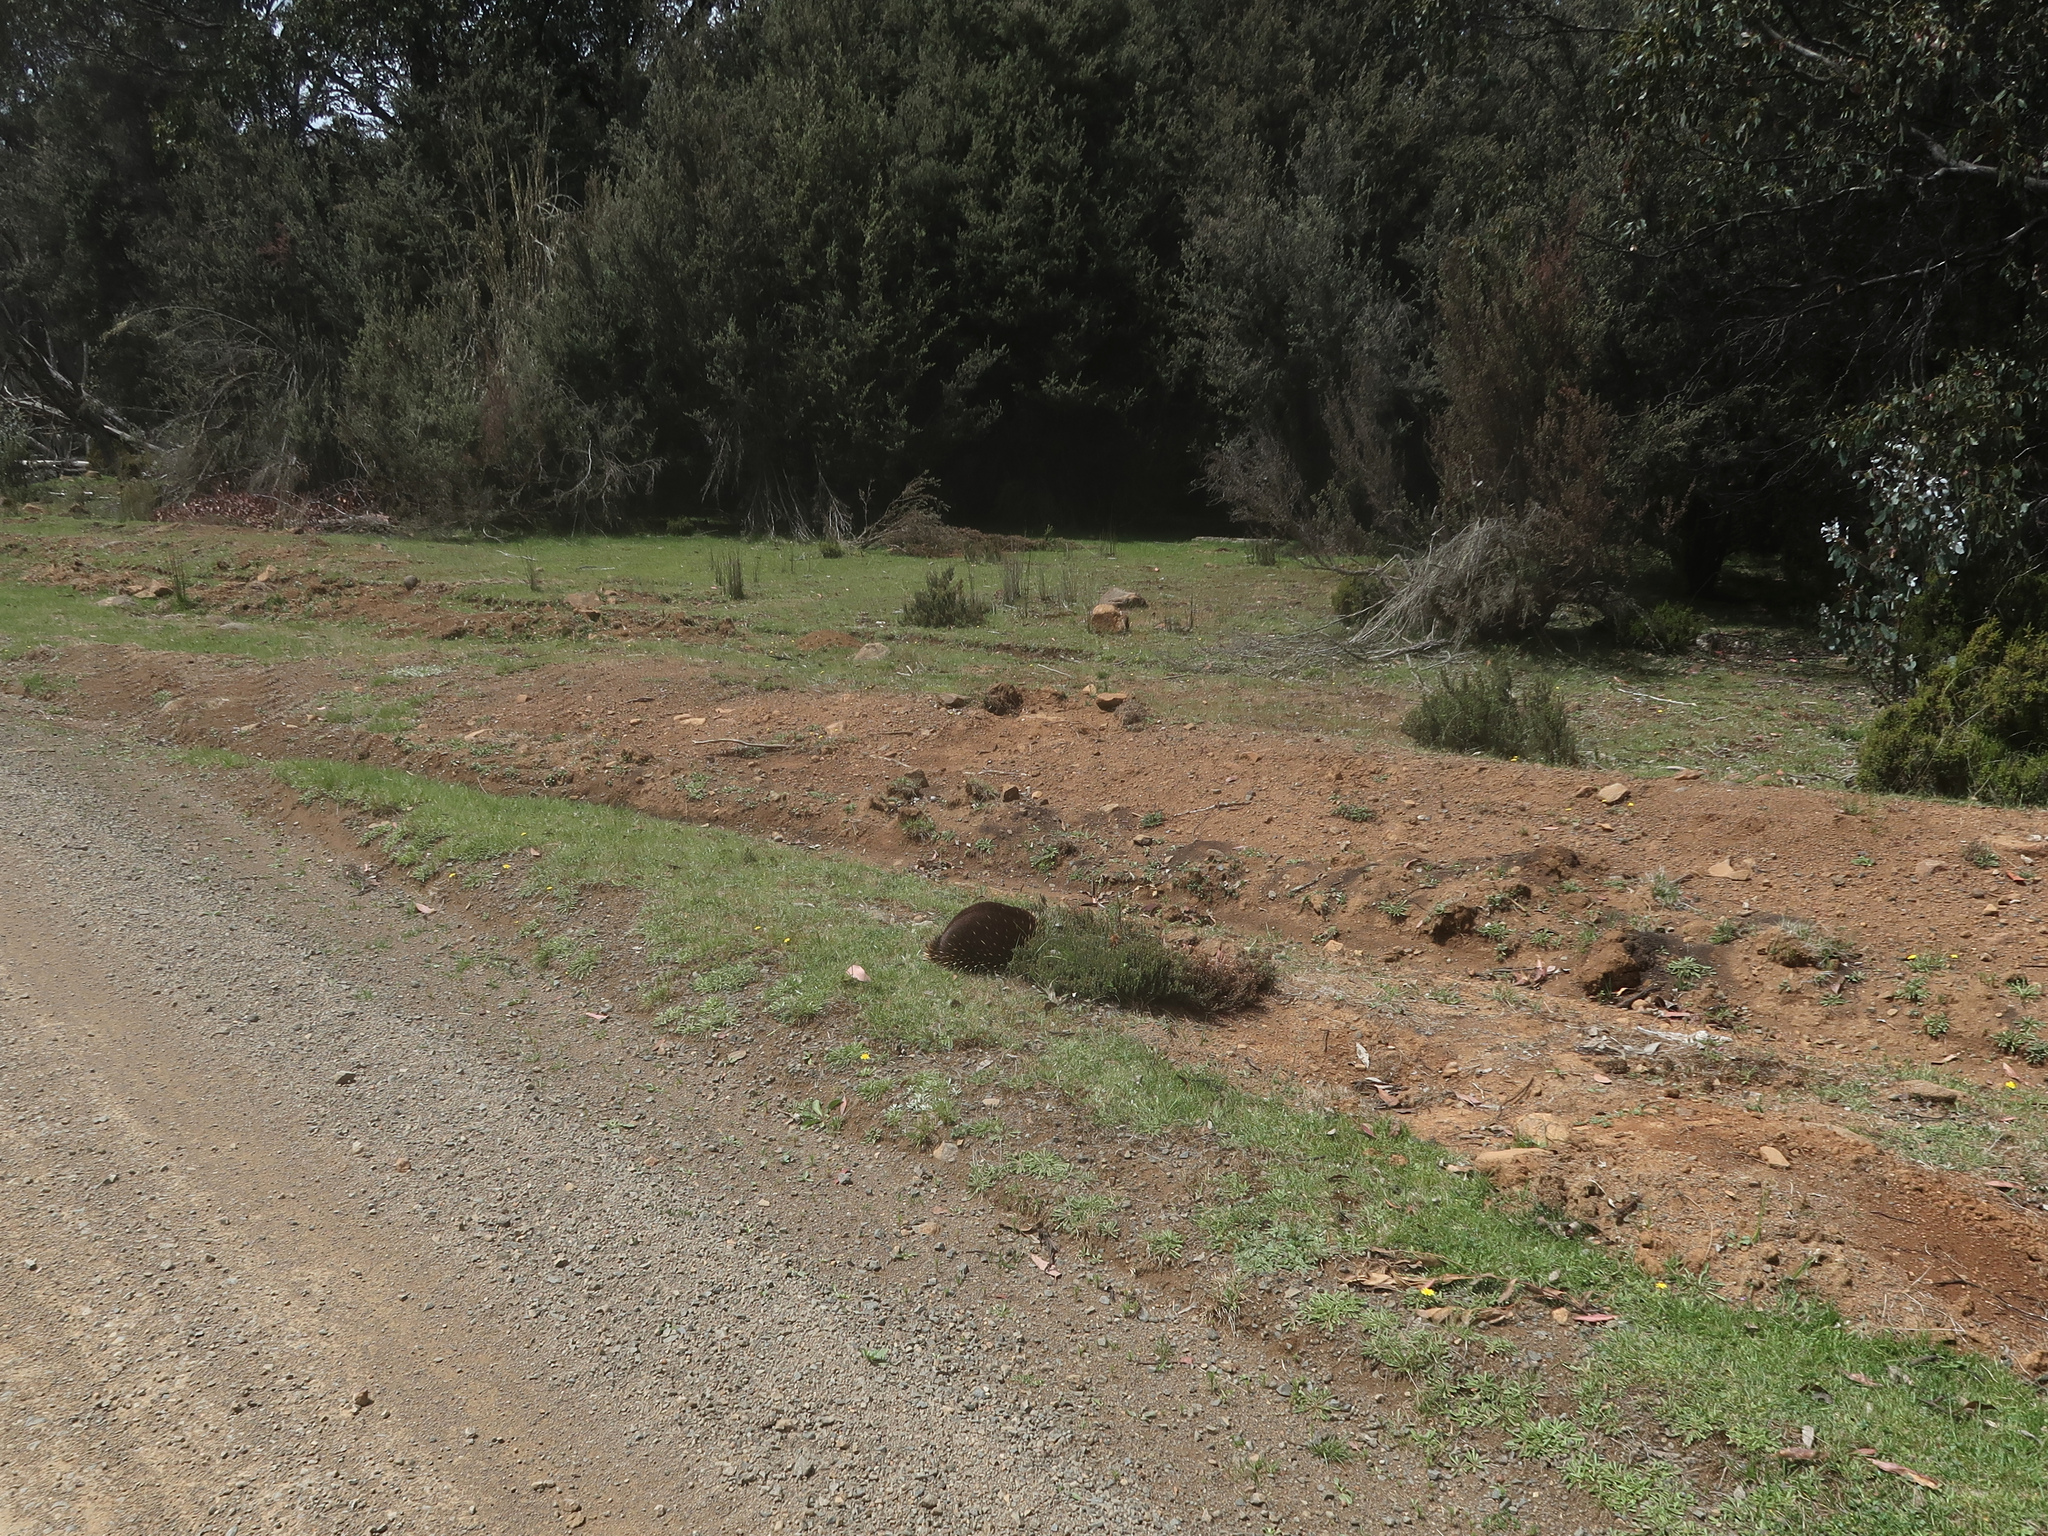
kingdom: Animalia
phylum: Chordata
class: Mammalia
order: Monotremata
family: Tachyglossidae
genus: Tachyglossus
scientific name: Tachyglossus aculeatus
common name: Short-beaked echidna
